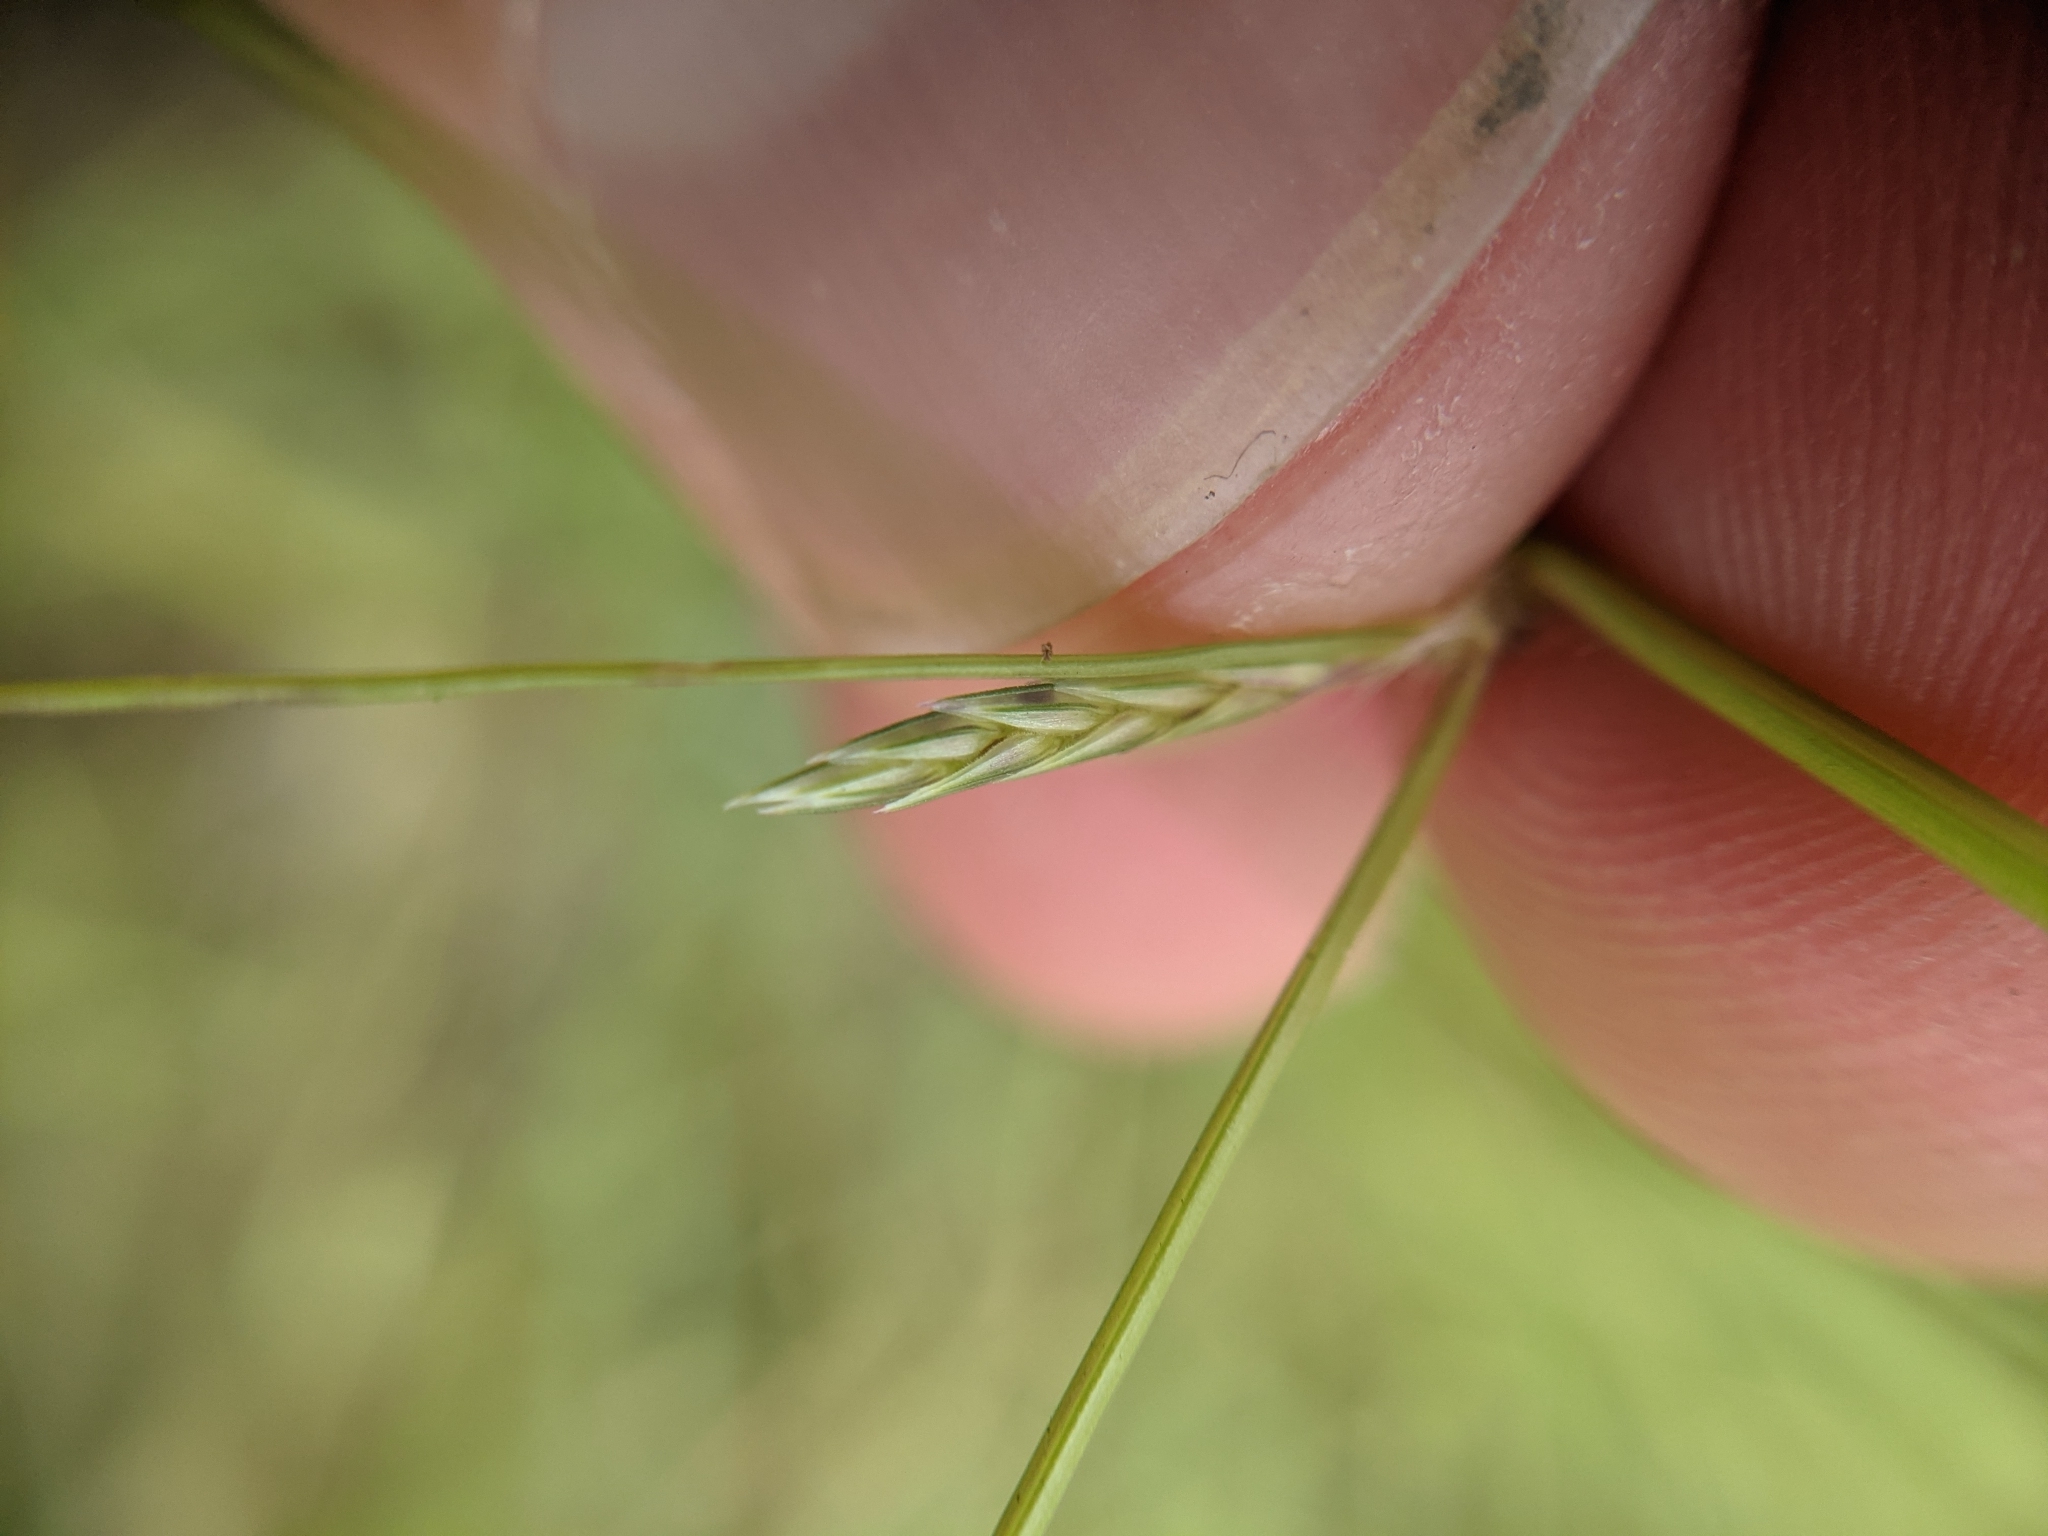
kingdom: Plantae
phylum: Tracheophyta
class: Liliopsida
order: Poales
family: Poaceae
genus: Eragrostis
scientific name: Eragrostis sessilispica
